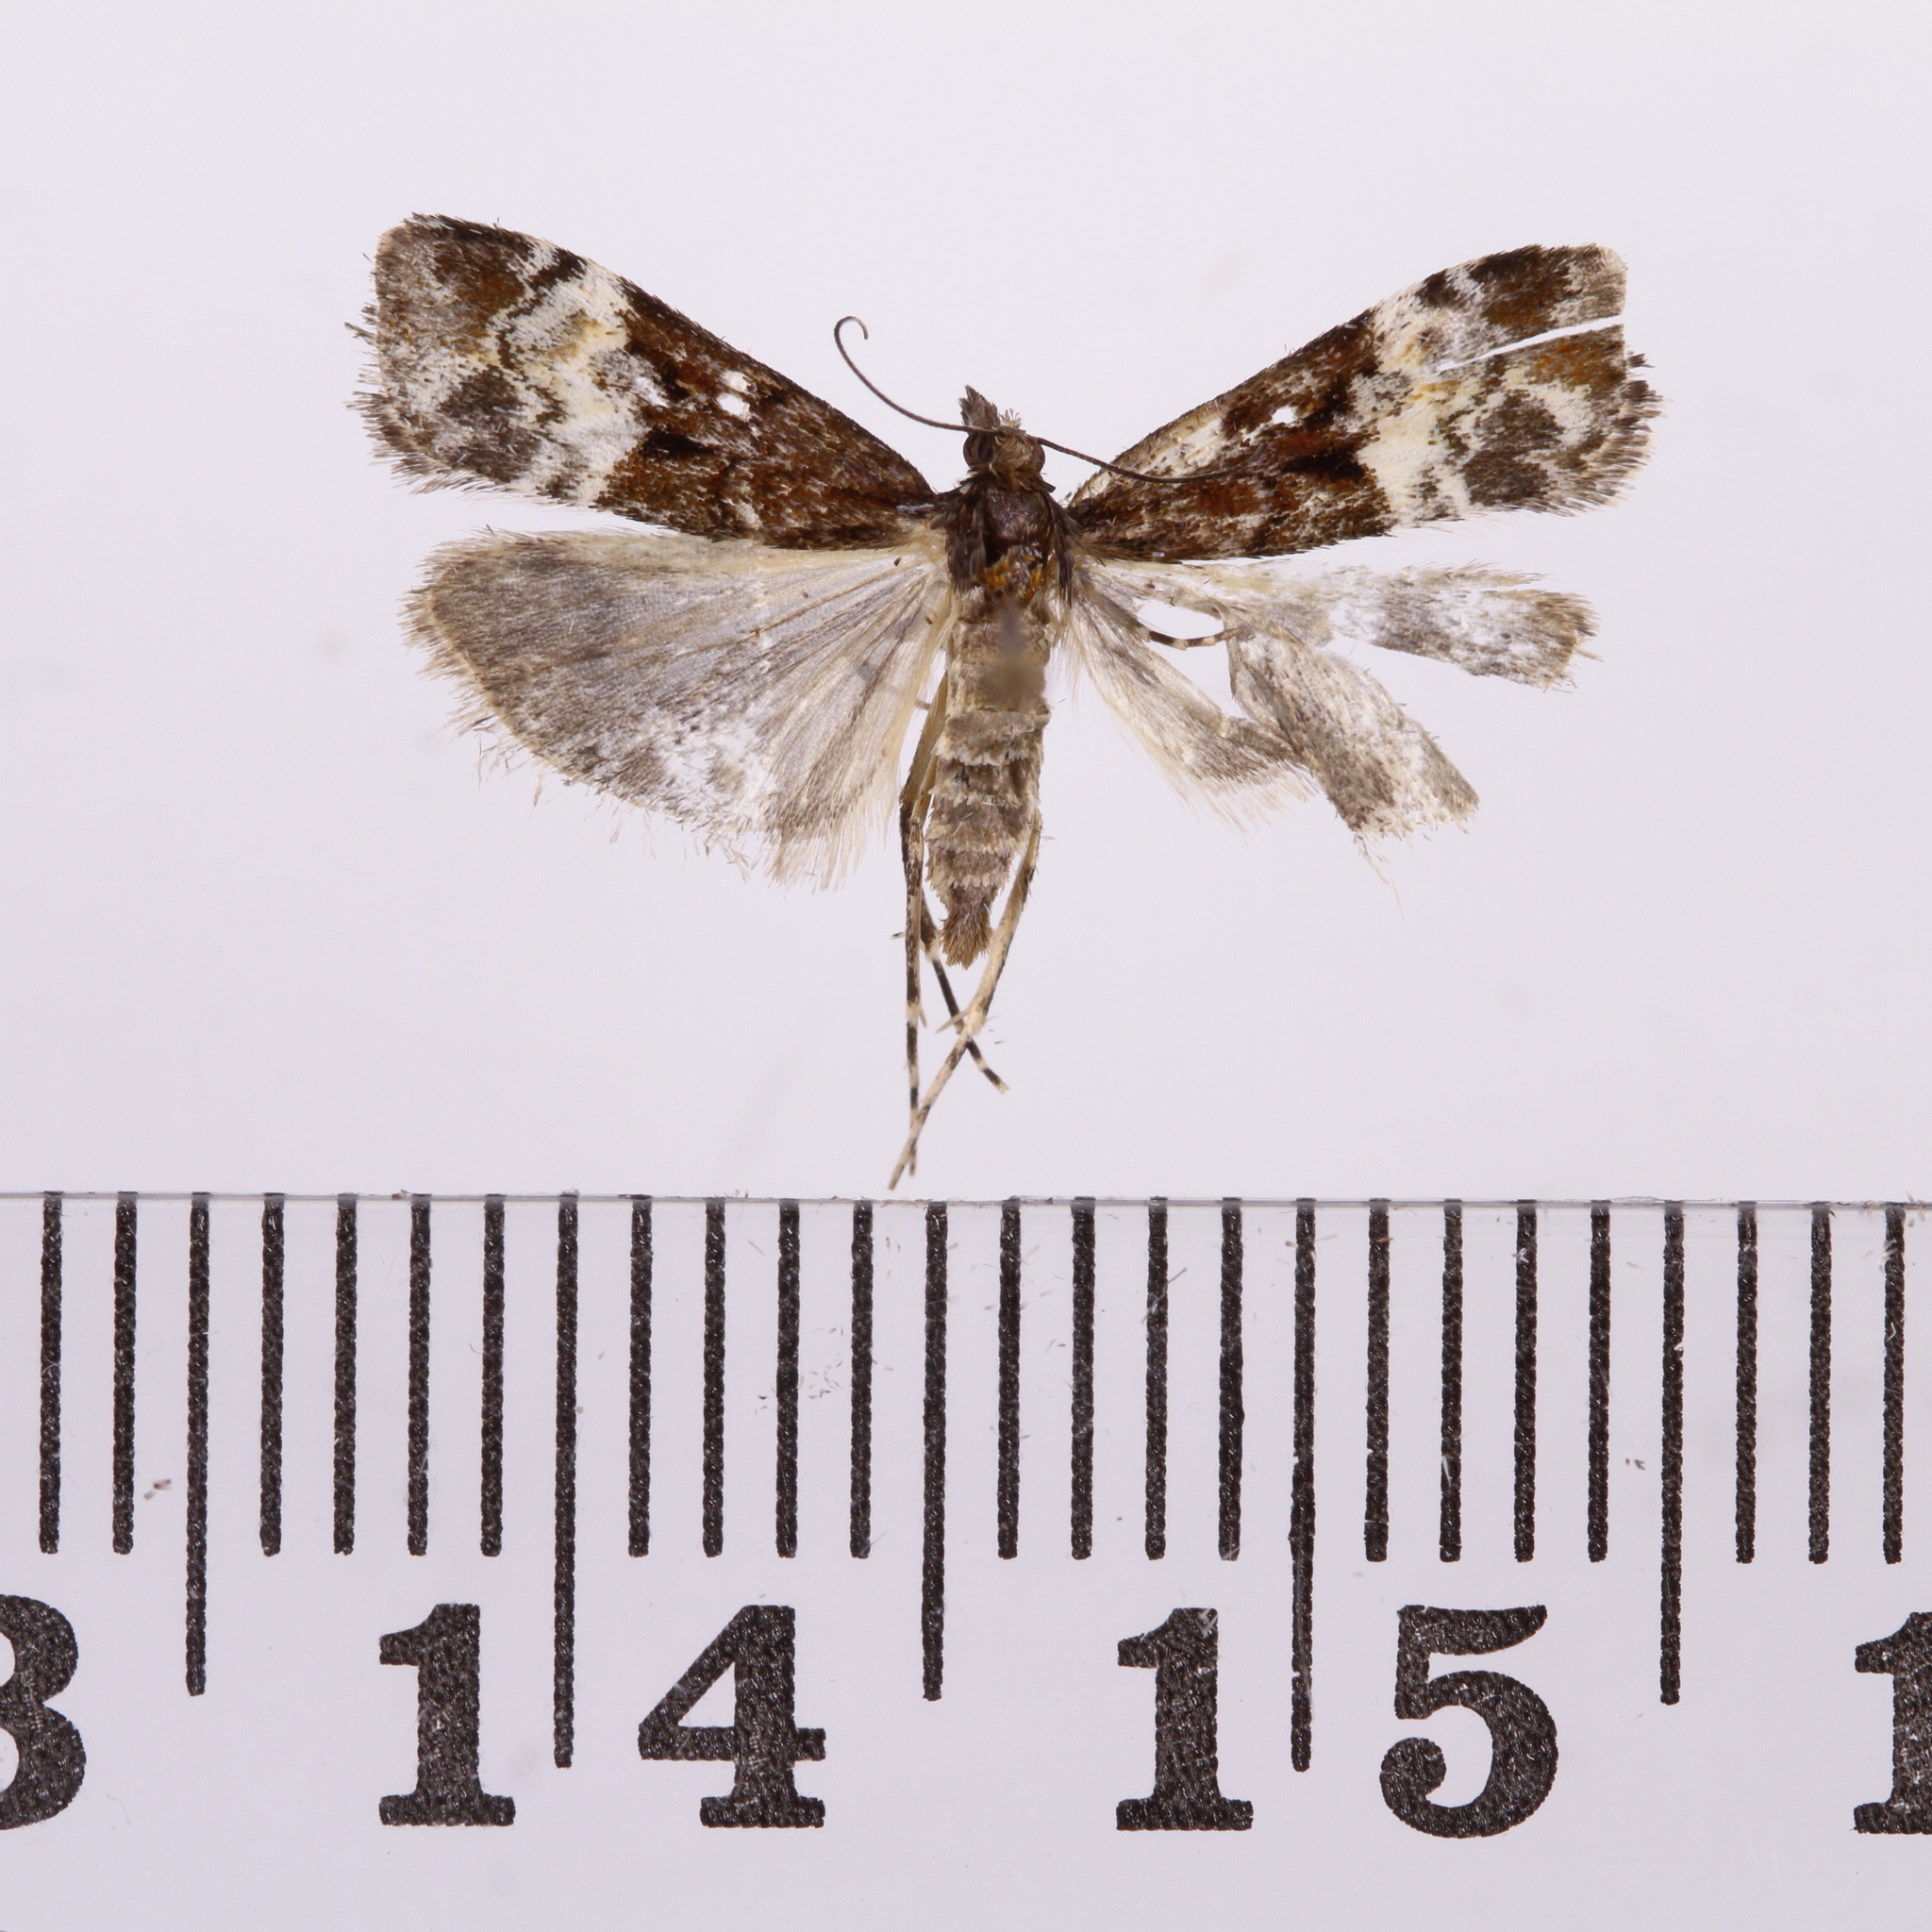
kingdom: Animalia
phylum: Arthropoda
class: Insecta
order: Lepidoptera
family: Crambidae
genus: Scoparia
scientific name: Scoparia minusculalis
